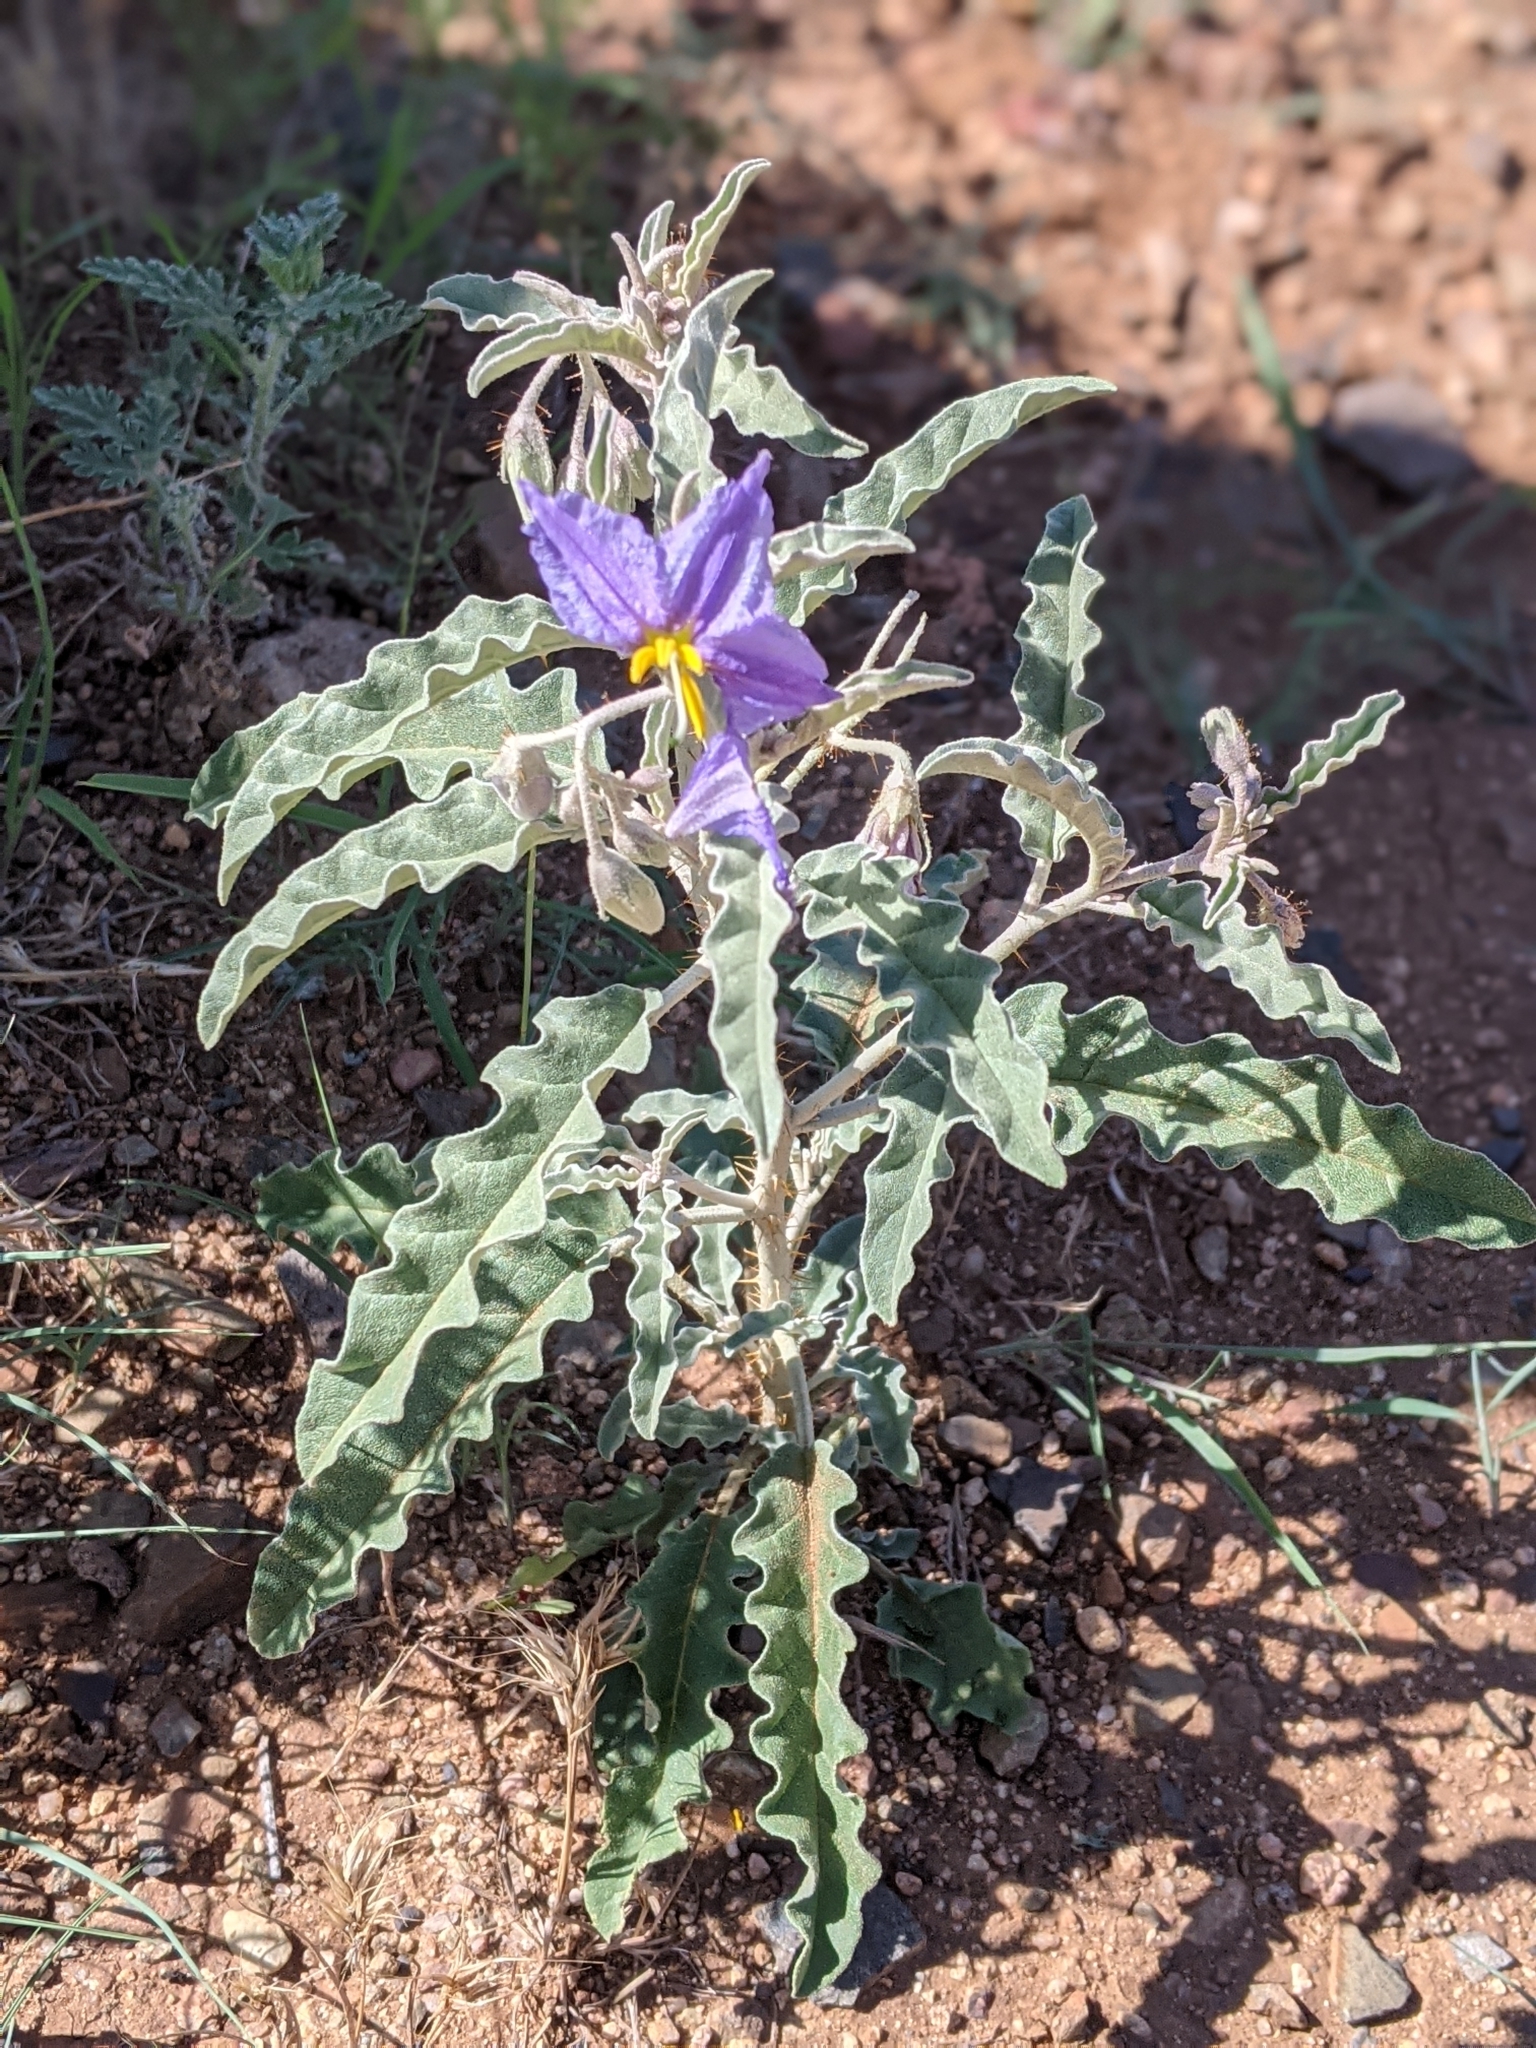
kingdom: Plantae
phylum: Tracheophyta
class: Magnoliopsida
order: Solanales
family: Solanaceae
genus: Solanum
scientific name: Solanum elaeagnifolium
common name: Silverleaf nightshade
